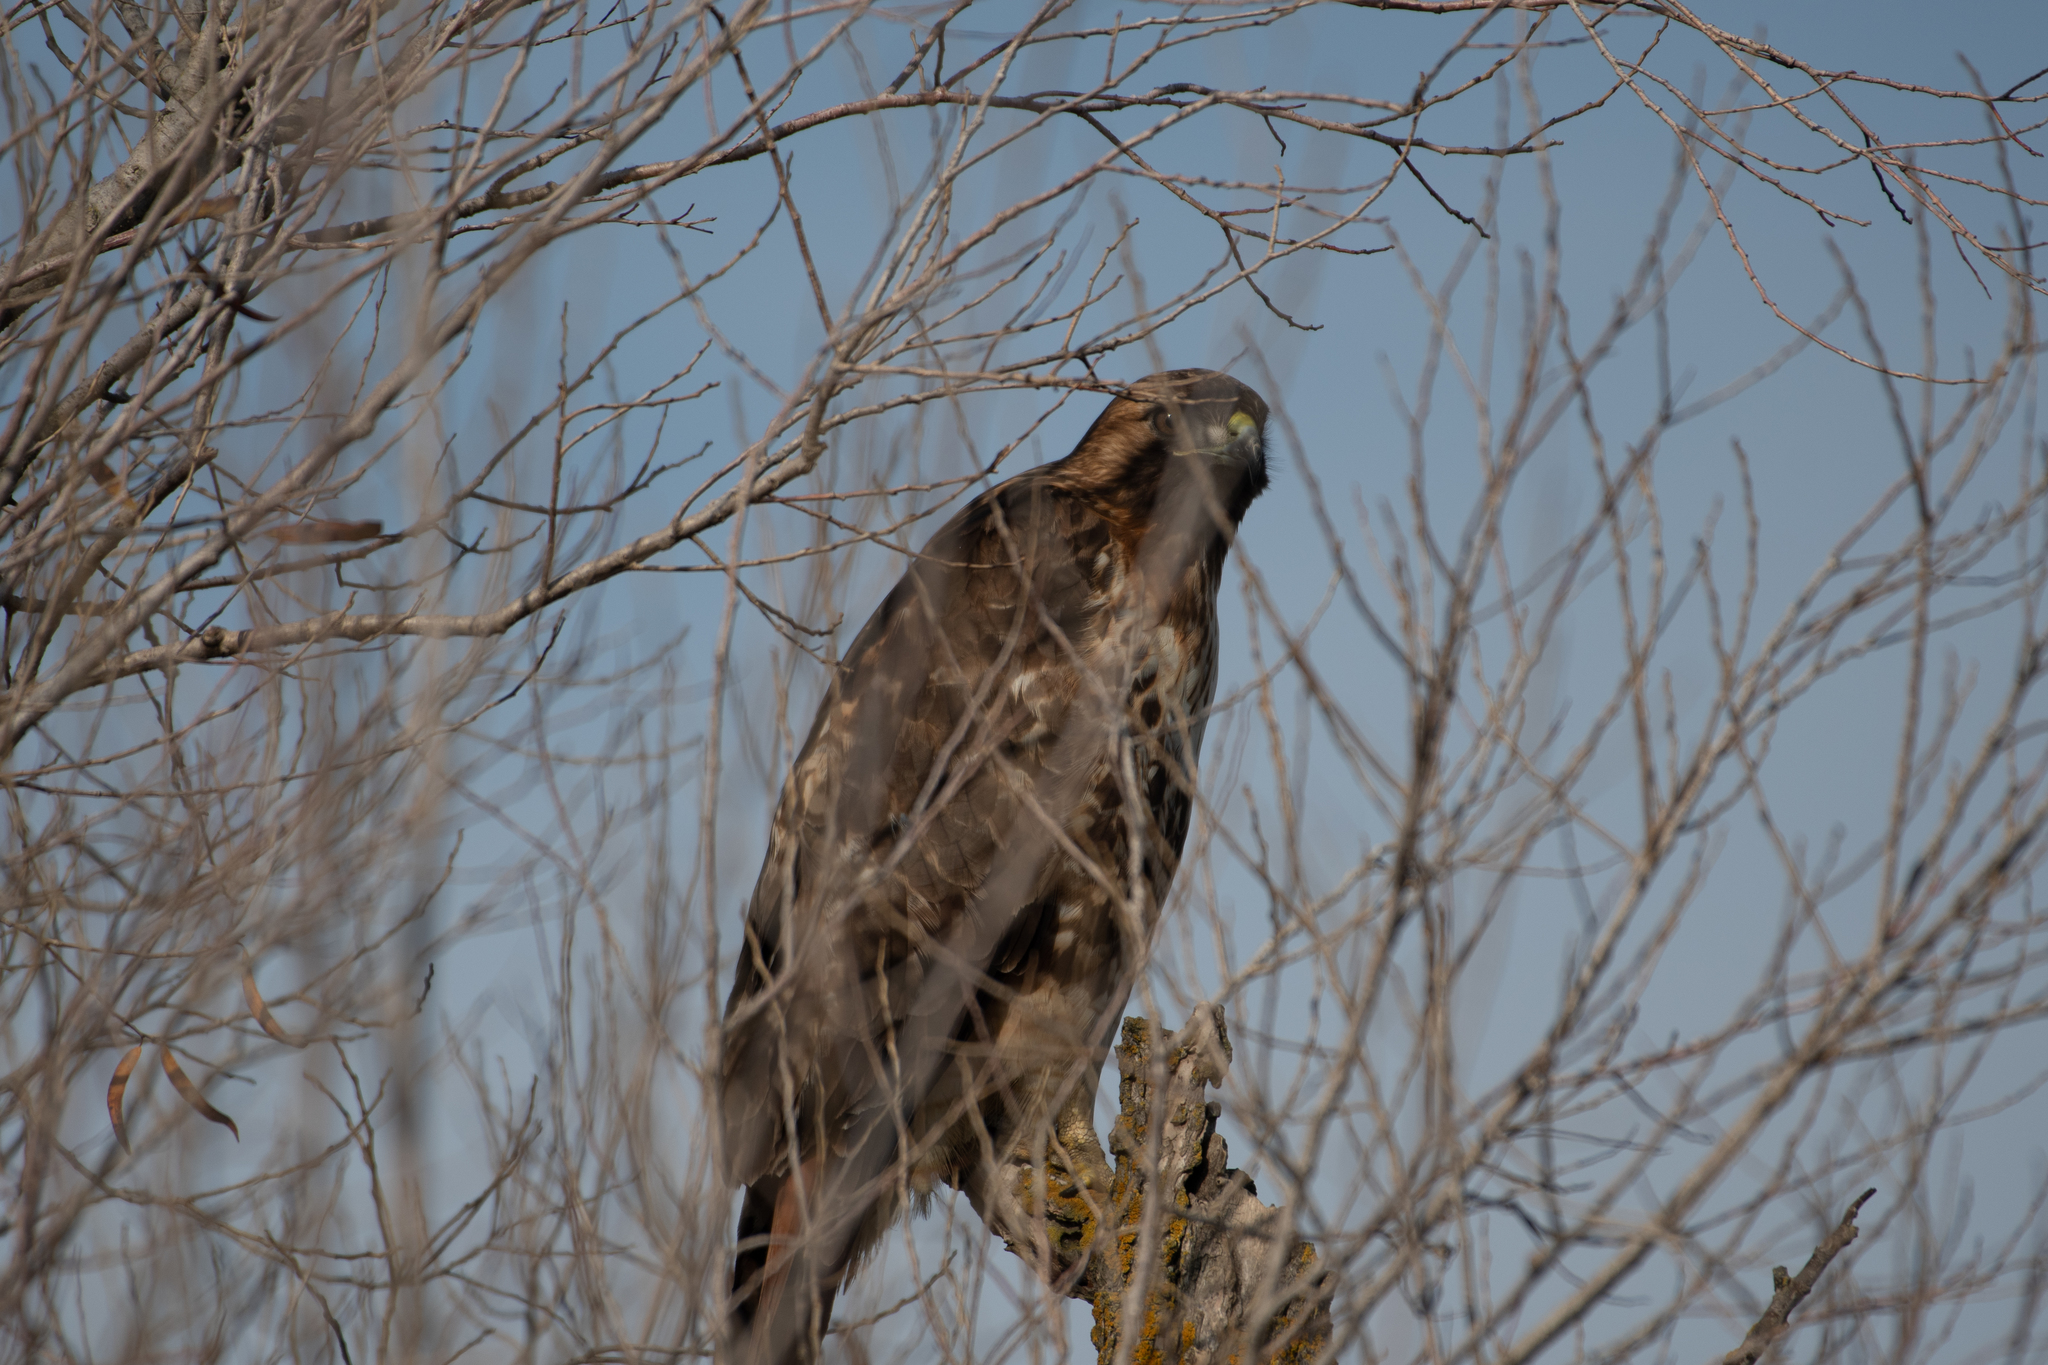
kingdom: Animalia
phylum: Chordata
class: Aves
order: Accipitriformes
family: Accipitridae
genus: Buteo
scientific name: Buteo jamaicensis
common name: Red-tailed hawk
